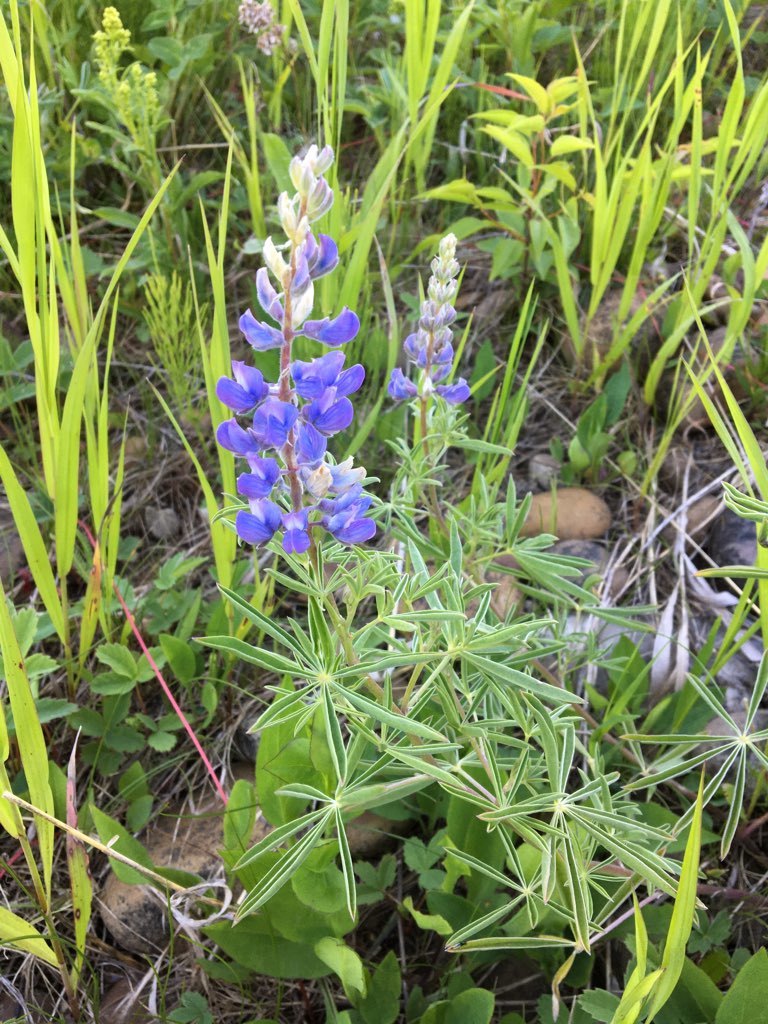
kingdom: Plantae
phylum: Tracheophyta
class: Magnoliopsida
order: Fabales
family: Fabaceae
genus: Lupinus
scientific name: Lupinus argenteus
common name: Silvery lupine
